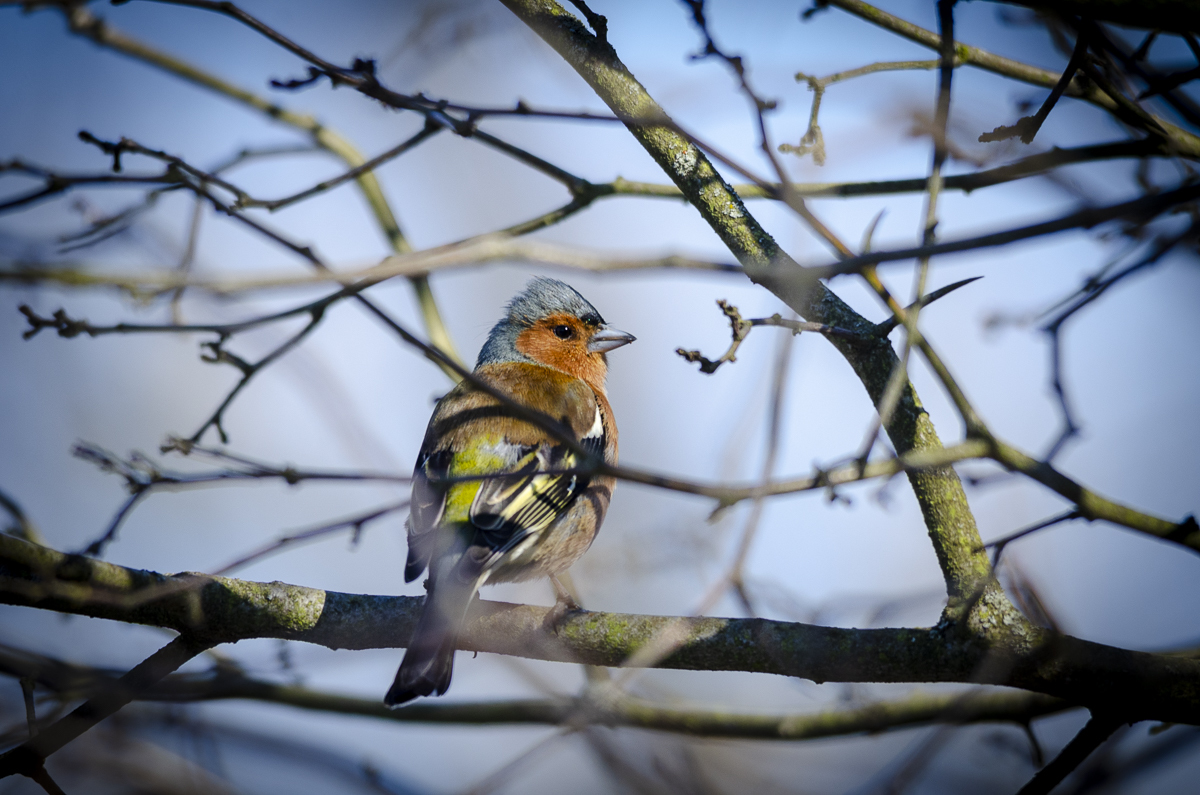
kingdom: Animalia
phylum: Chordata
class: Aves
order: Passeriformes
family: Fringillidae
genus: Fringilla
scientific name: Fringilla coelebs
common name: Common chaffinch
